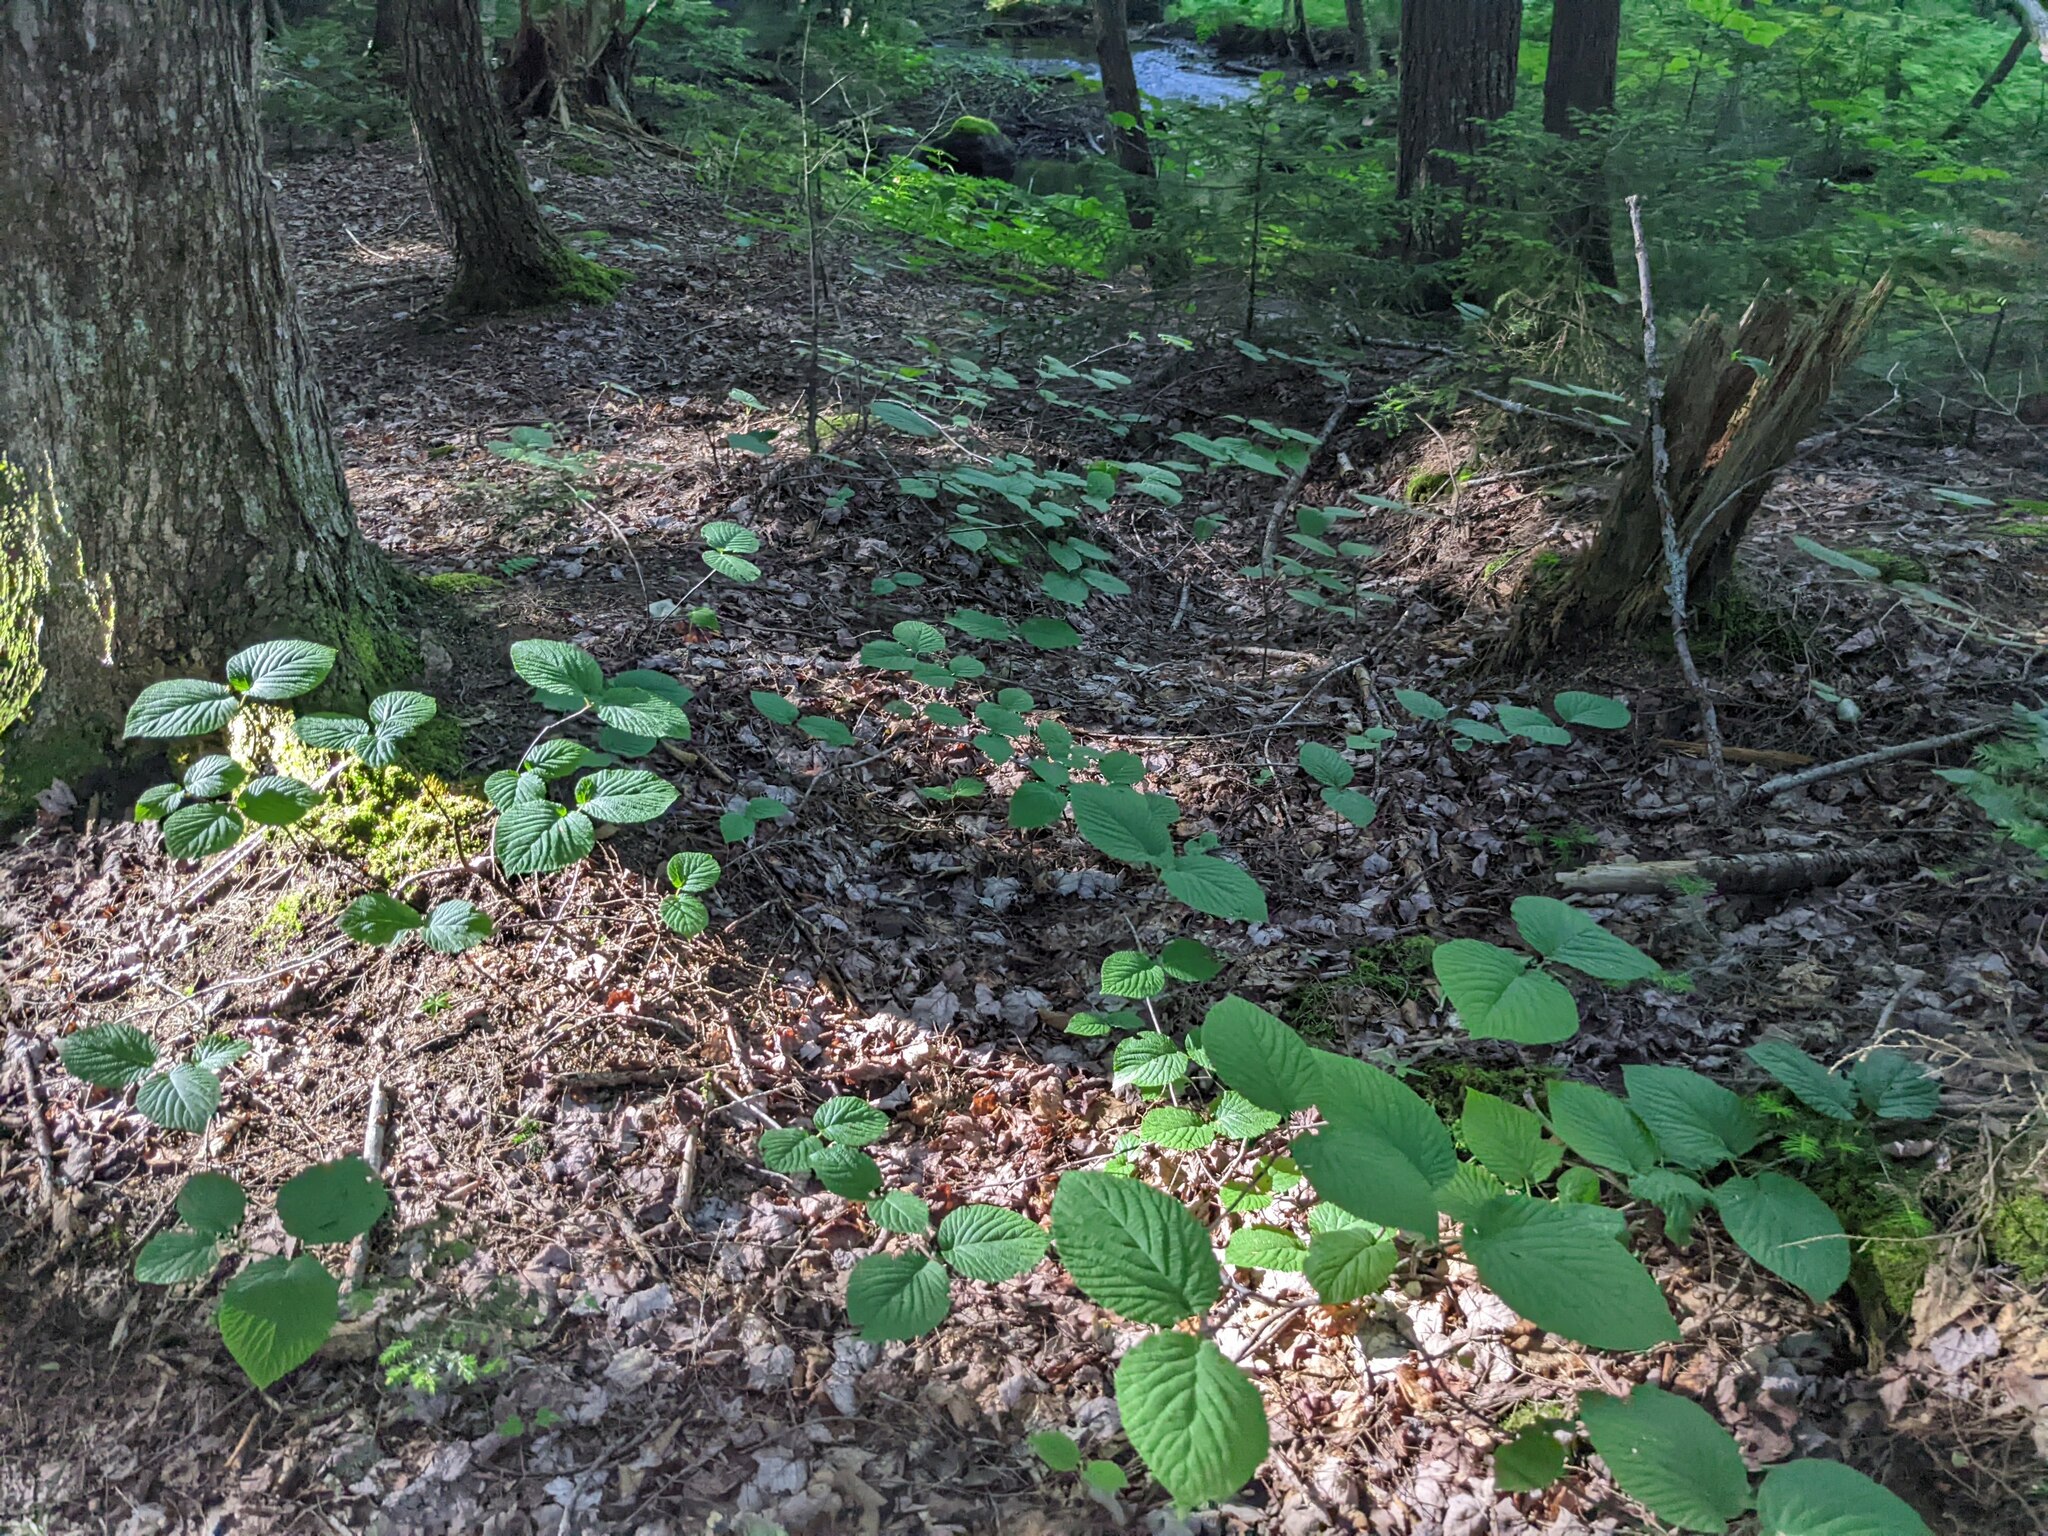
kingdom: Plantae
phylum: Tracheophyta
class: Magnoliopsida
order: Dipsacales
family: Viburnaceae
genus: Viburnum
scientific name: Viburnum lantanoides
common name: Hobblebush
